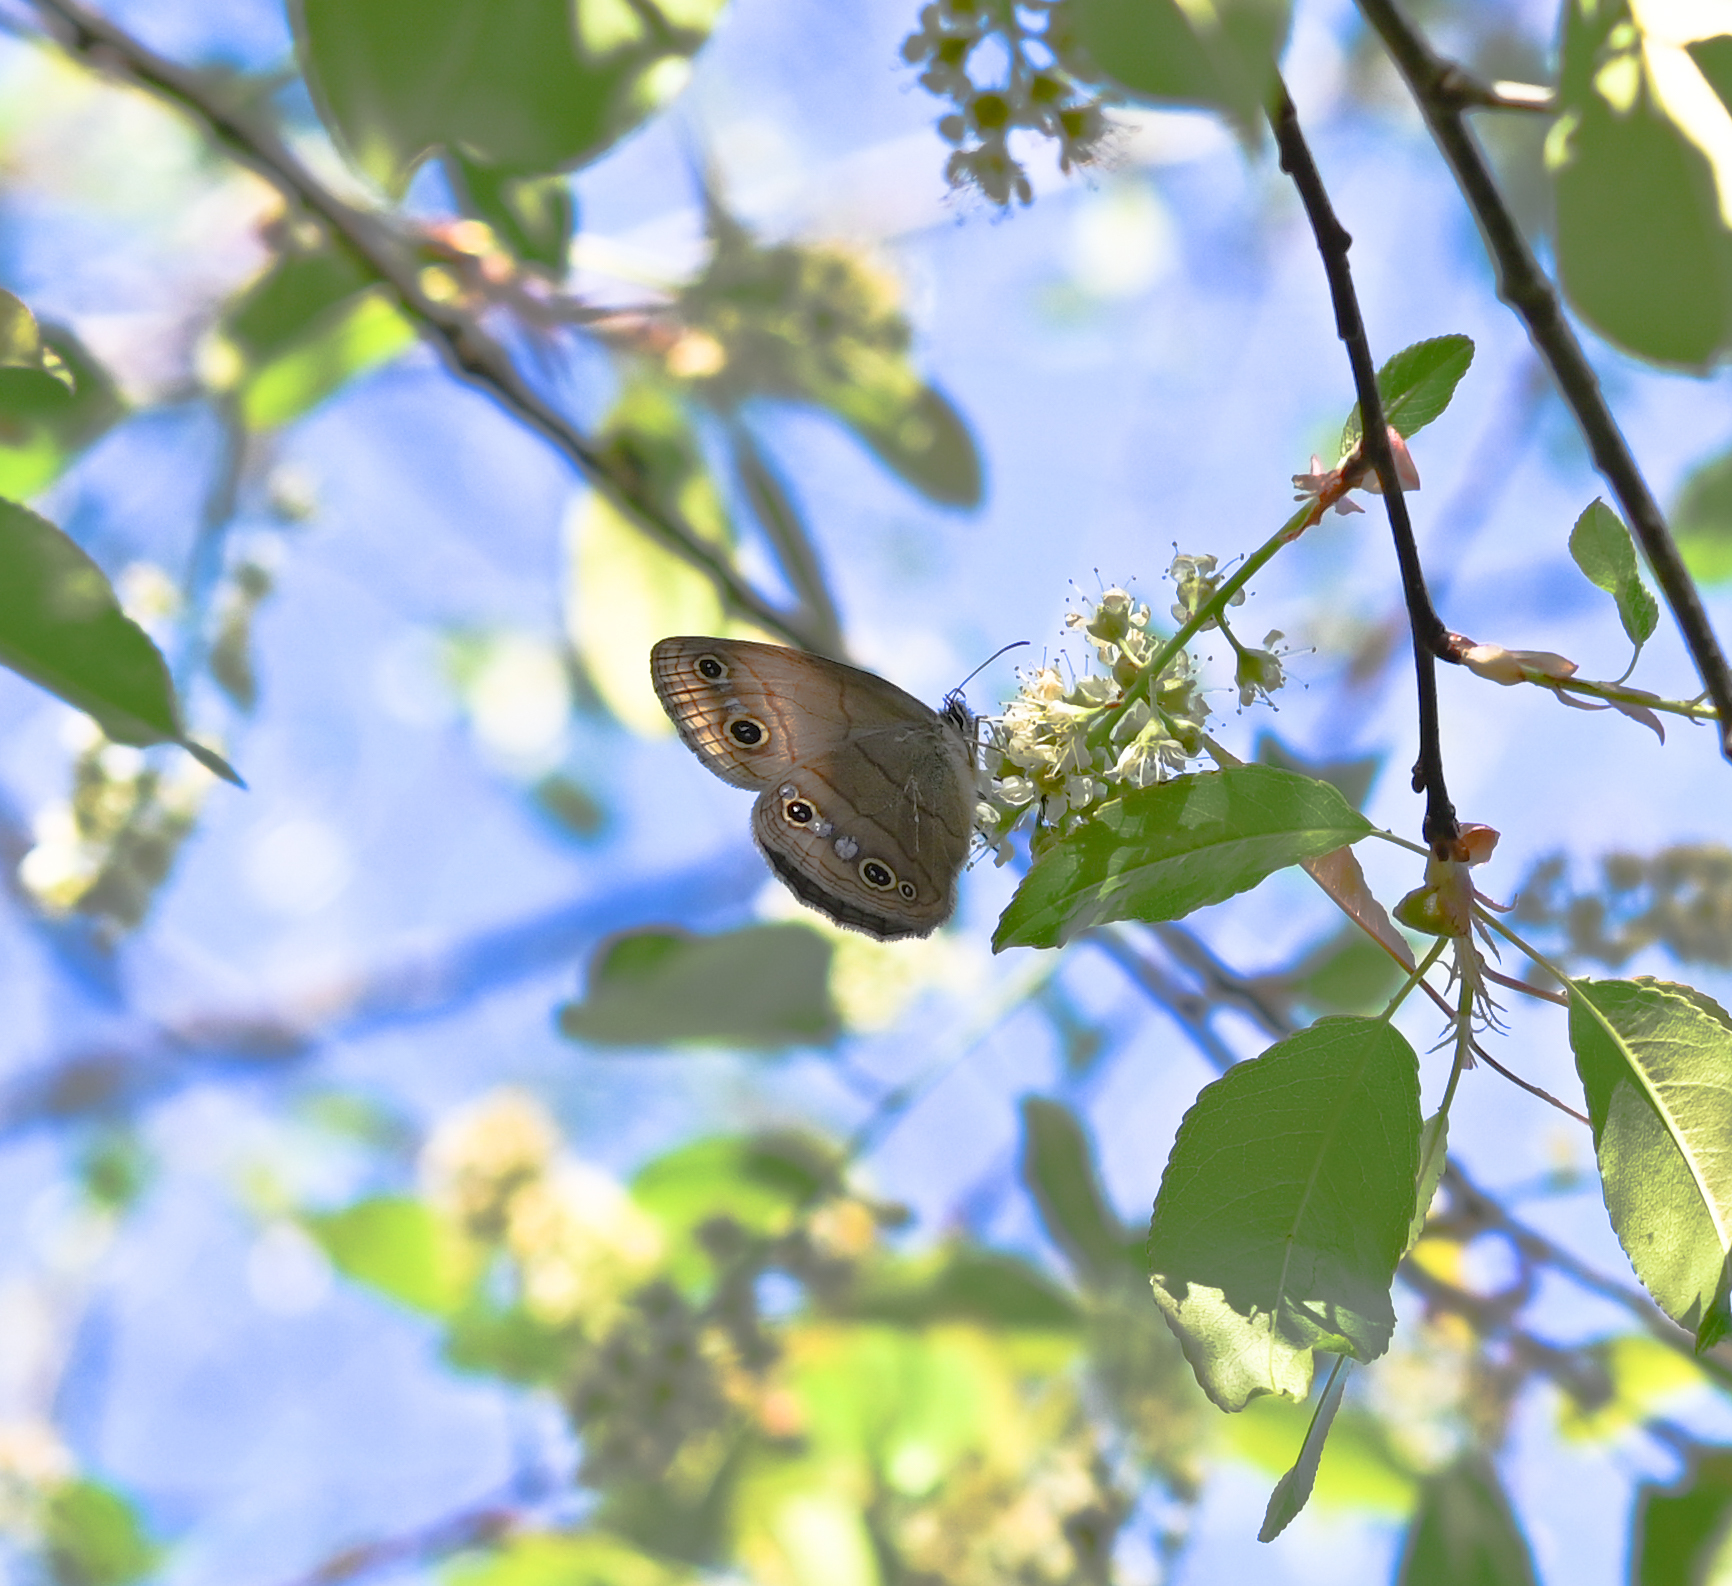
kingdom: Animalia
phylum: Arthropoda
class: Insecta
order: Lepidoptera
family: Nymphalidae
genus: Euptychia
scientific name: Euptychia cymela
